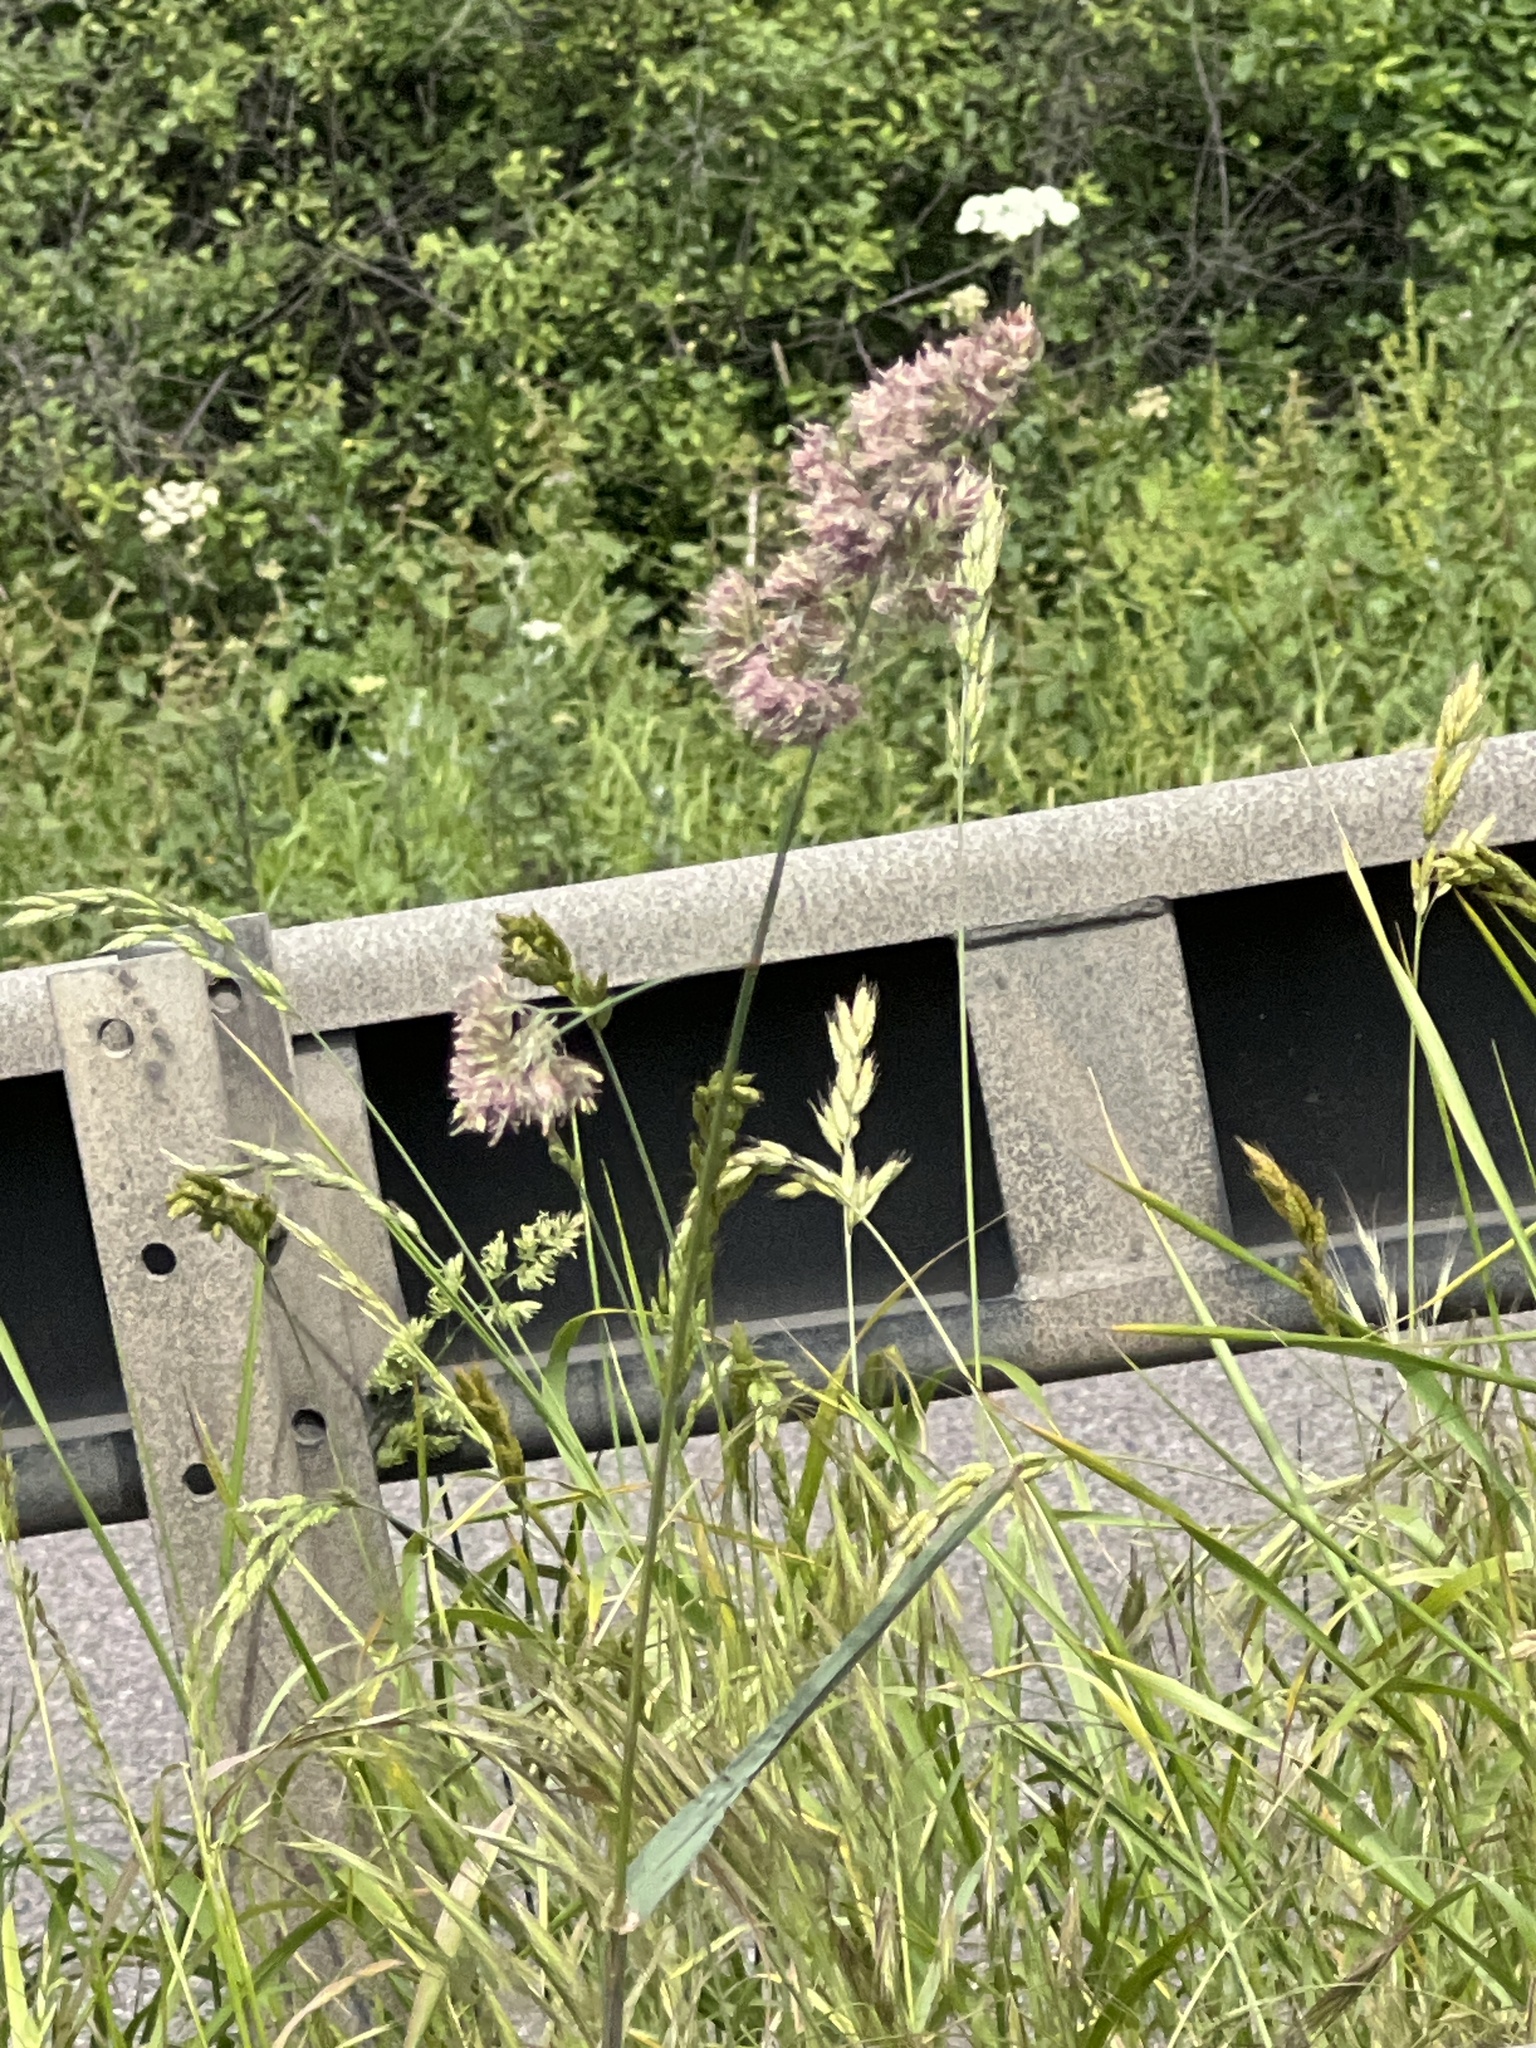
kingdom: Plantae
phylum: Tracheophyta
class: Liliopsida
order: Poales
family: Poaceae
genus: Dactylis
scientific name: Dactylis glomerata
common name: Orchardgrass
